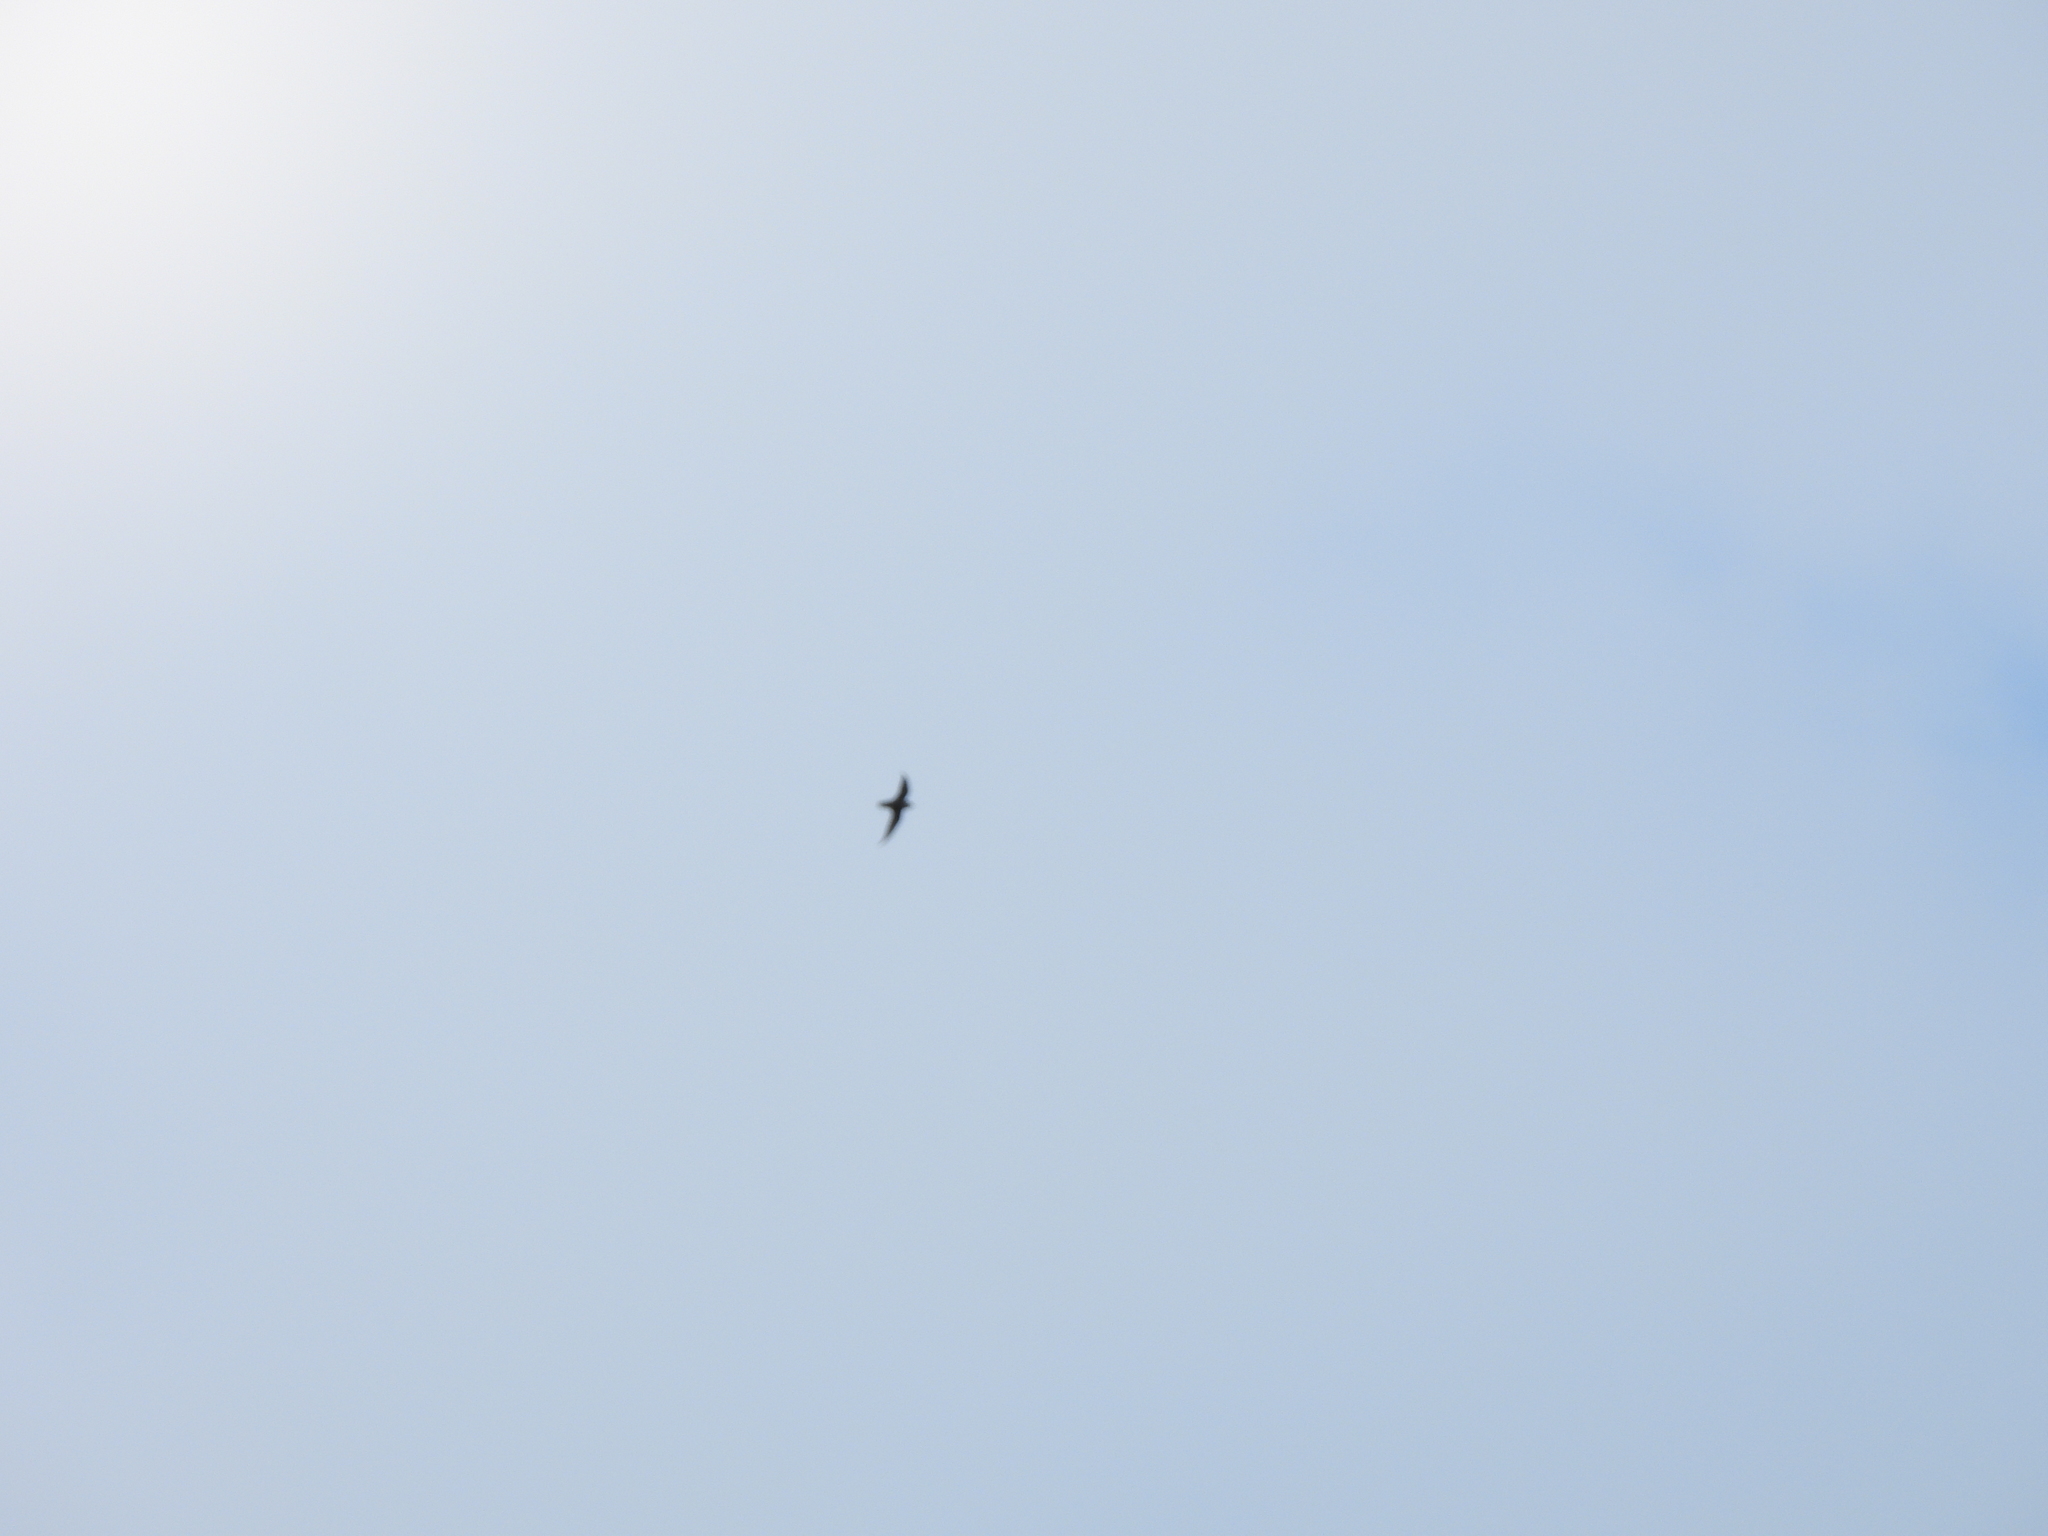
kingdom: Animalia
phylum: Chordata
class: Aves
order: Apodiformes
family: Apodidae
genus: Chaetura
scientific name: Chaetura pelagica
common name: Chimney swift
